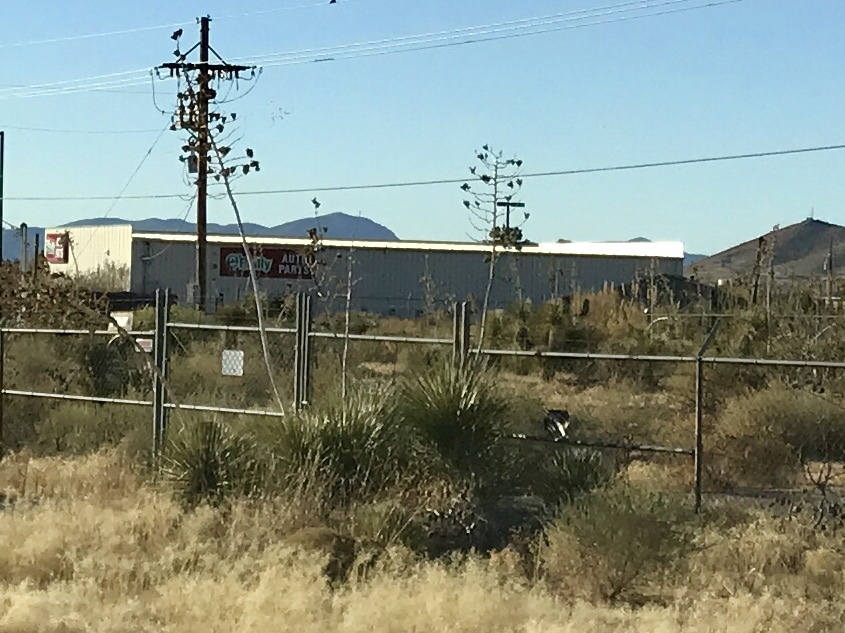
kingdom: Plantae
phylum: Tracheophyta
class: Liliopsida
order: Asparagales
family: Asparagaceae
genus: Yucca
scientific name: Yucca elata
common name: Palmella
